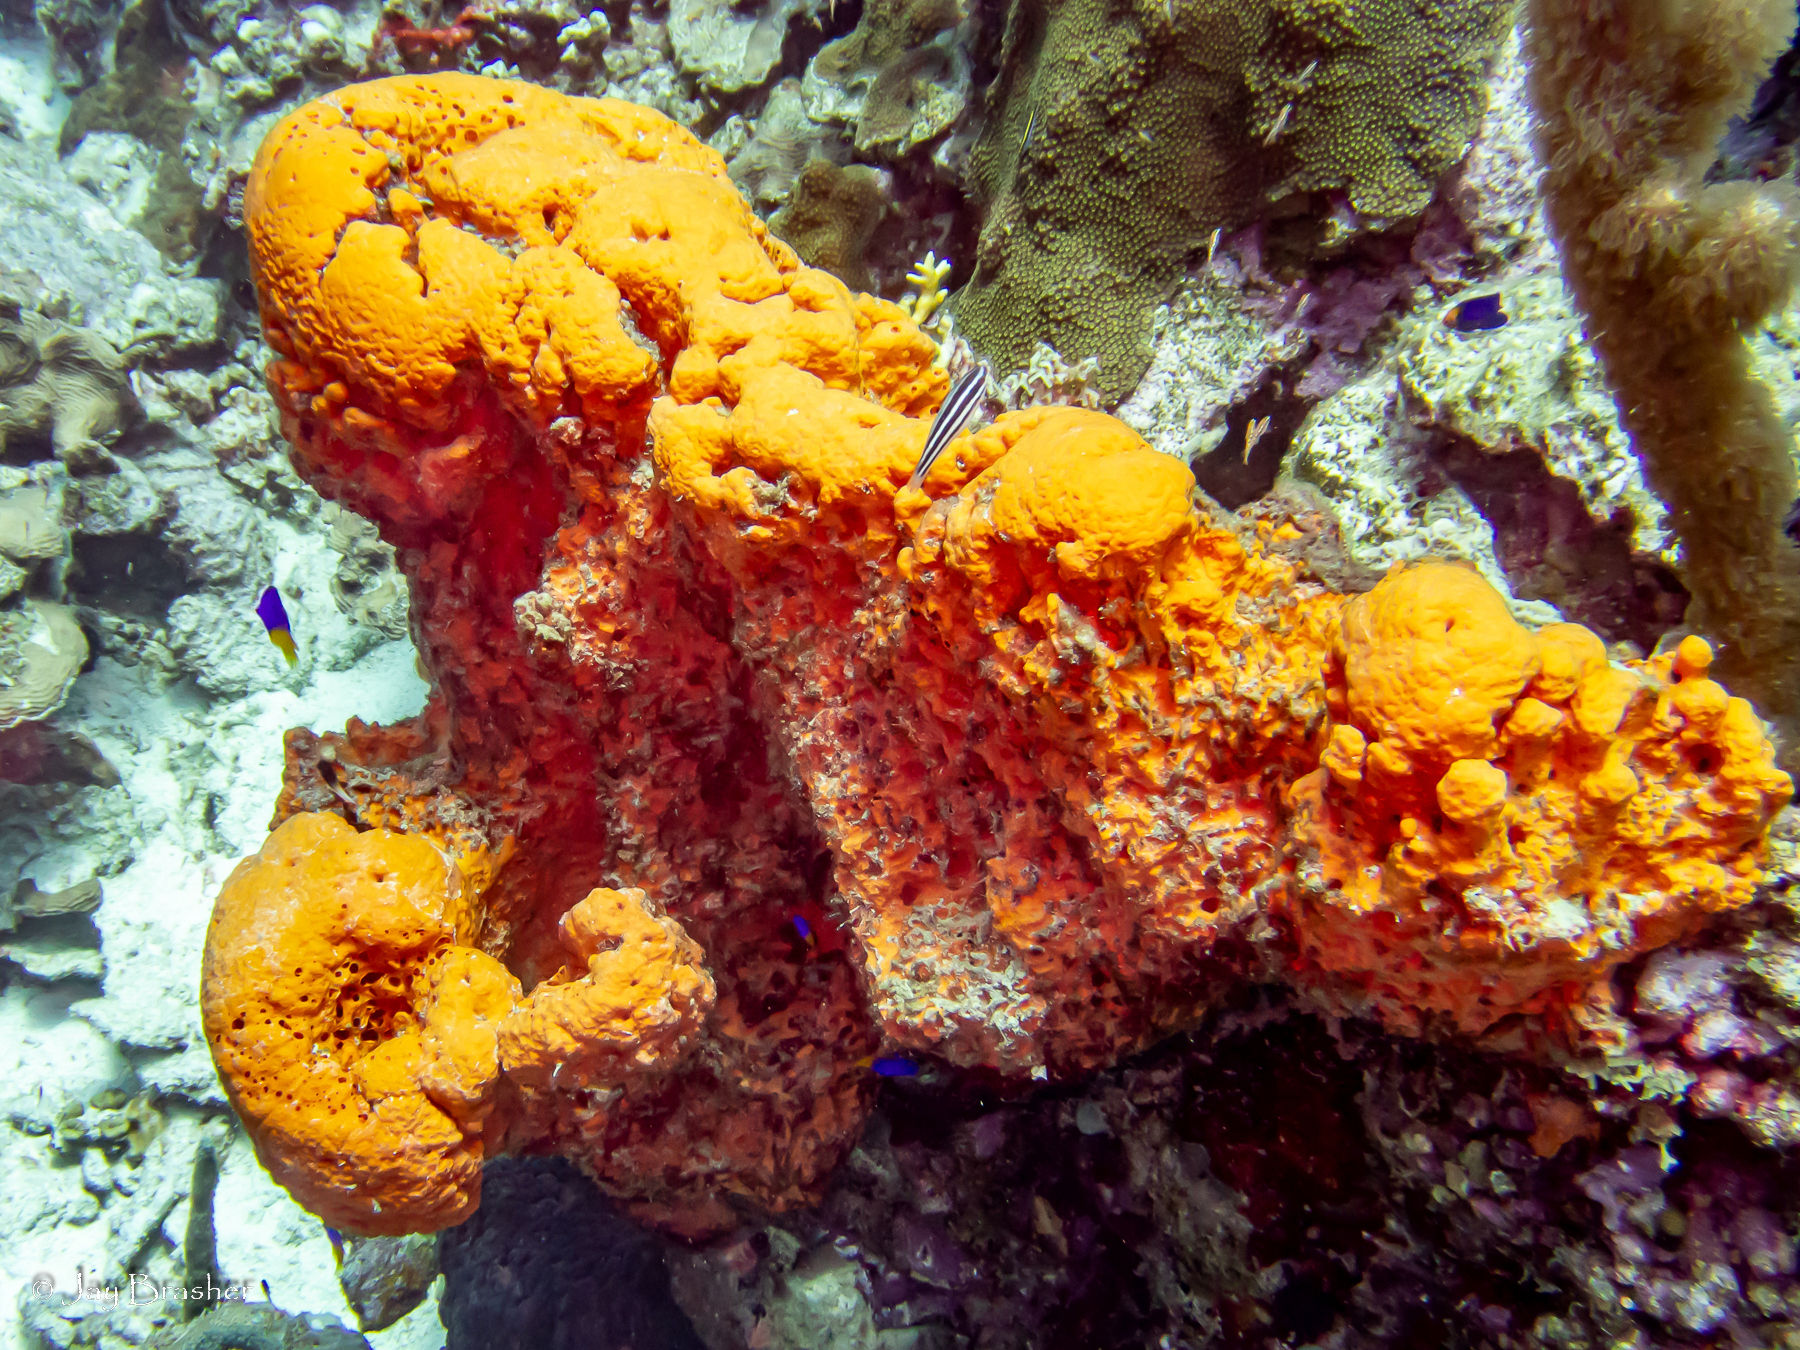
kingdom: Animalia
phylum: Porifera
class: Demospongiae
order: Agelasida
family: Agelasidae
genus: Agelas
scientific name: Agelas clathrodes
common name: Orange elephant ear sponge
